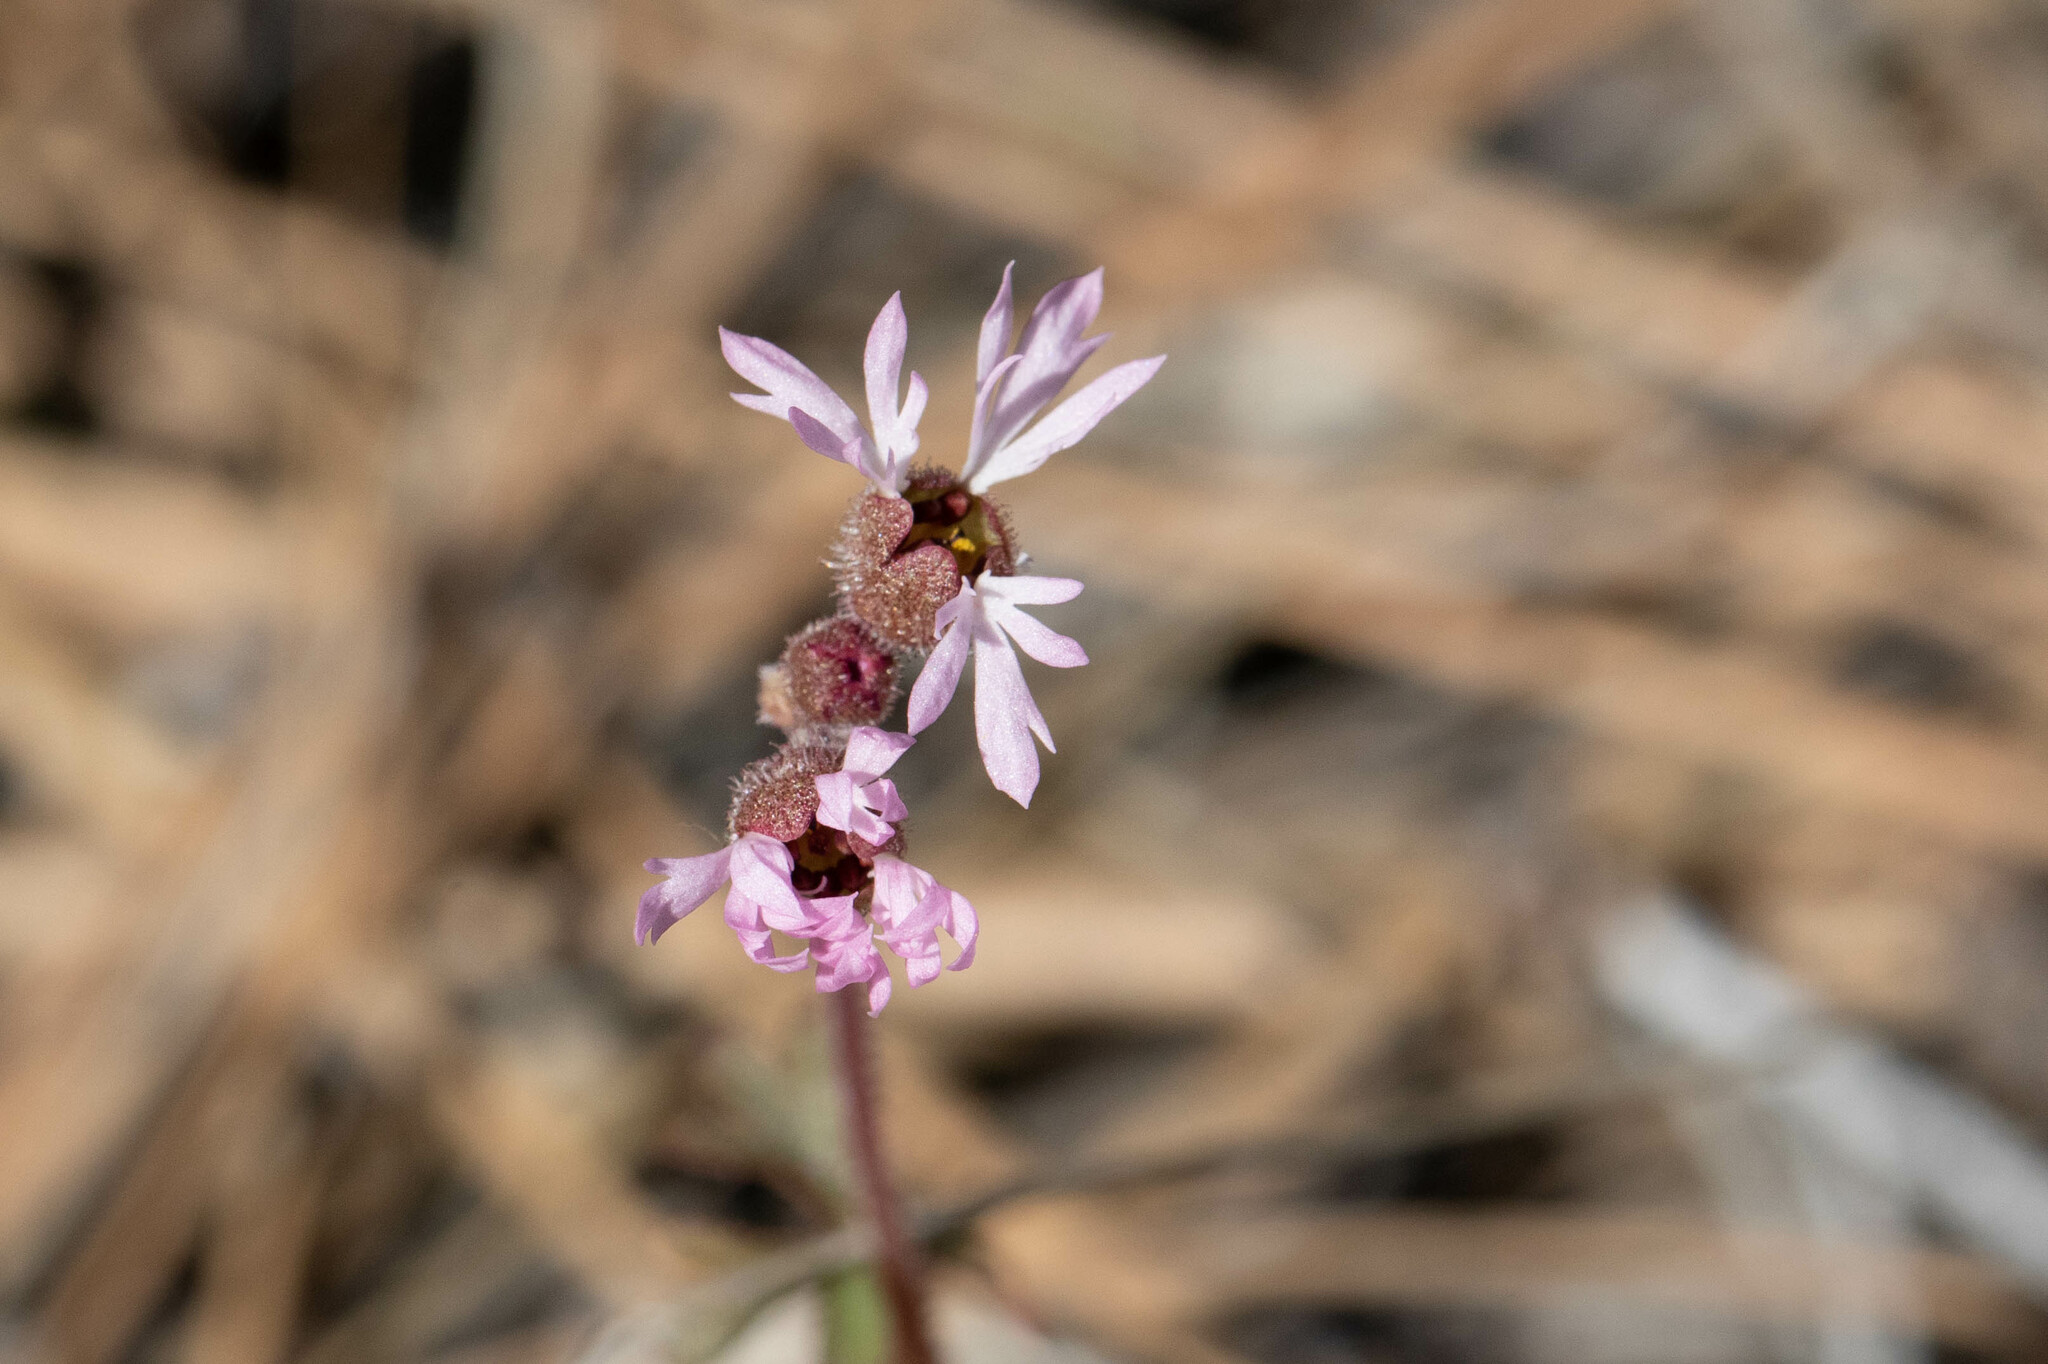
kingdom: Plantae
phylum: Tracheophyta
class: Magnoliopsida
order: Saxifragales
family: Saxifragaceae
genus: Lithophragma
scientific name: Lithophragma glabrum
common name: Bulbous prairie-star
